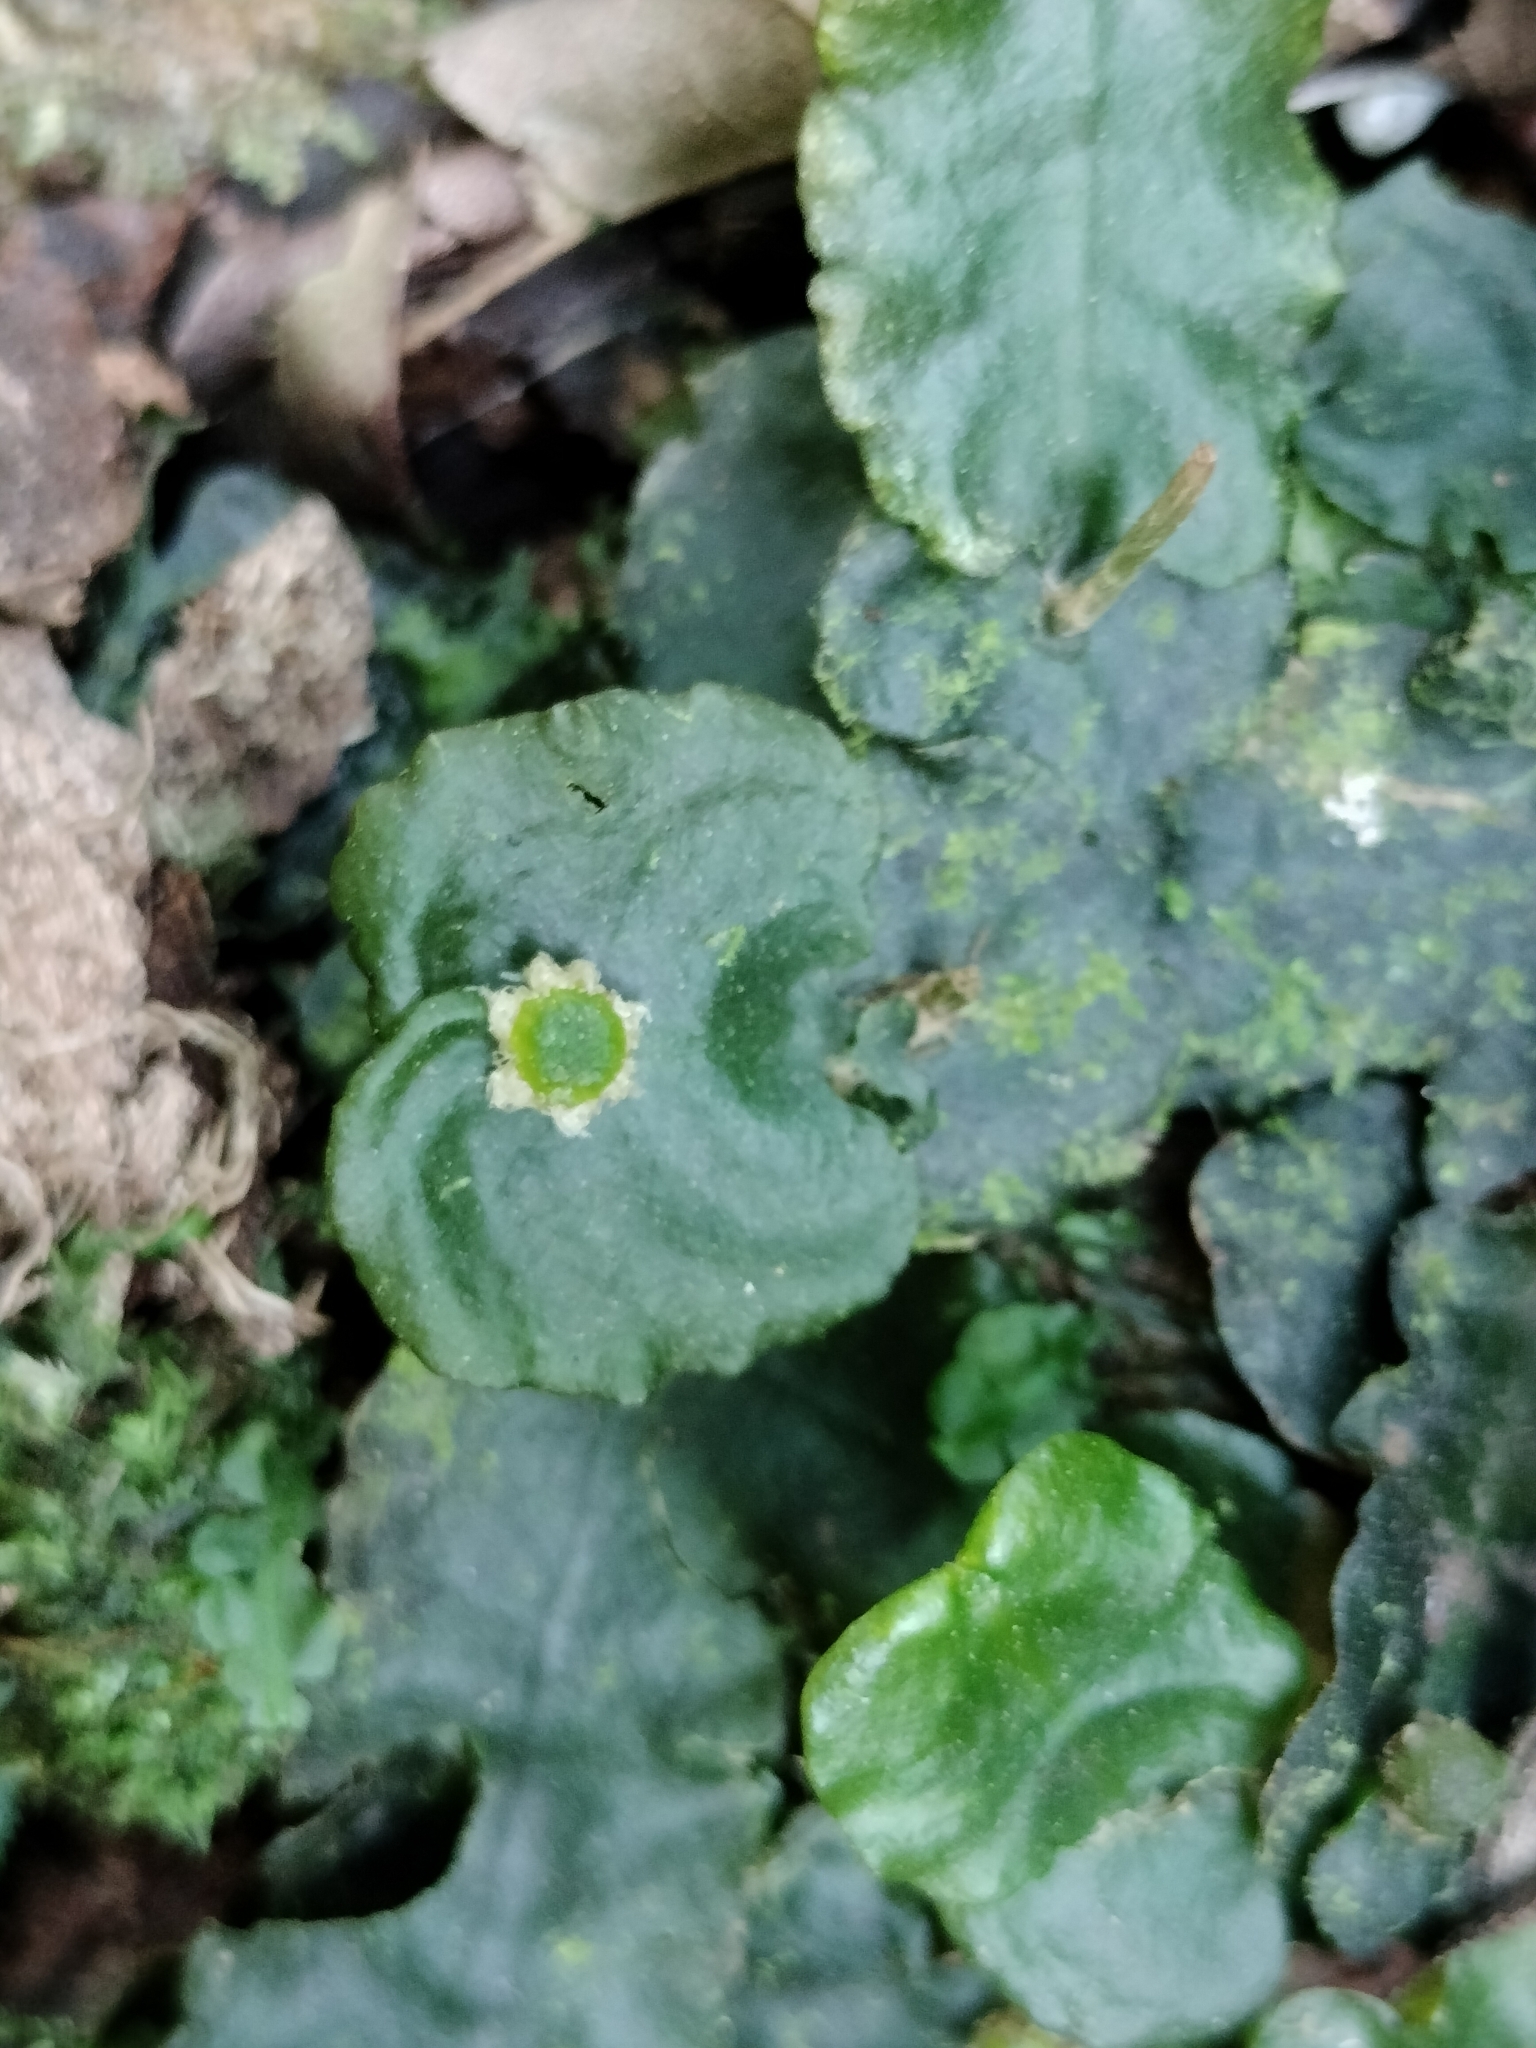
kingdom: Plantae
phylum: Marchantiophyta
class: Marchantiopsida
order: Marchantiales
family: Dumortieraceae
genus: Dumortiera
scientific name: Dumortiera hirsuta
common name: Dumortier's liverwort
